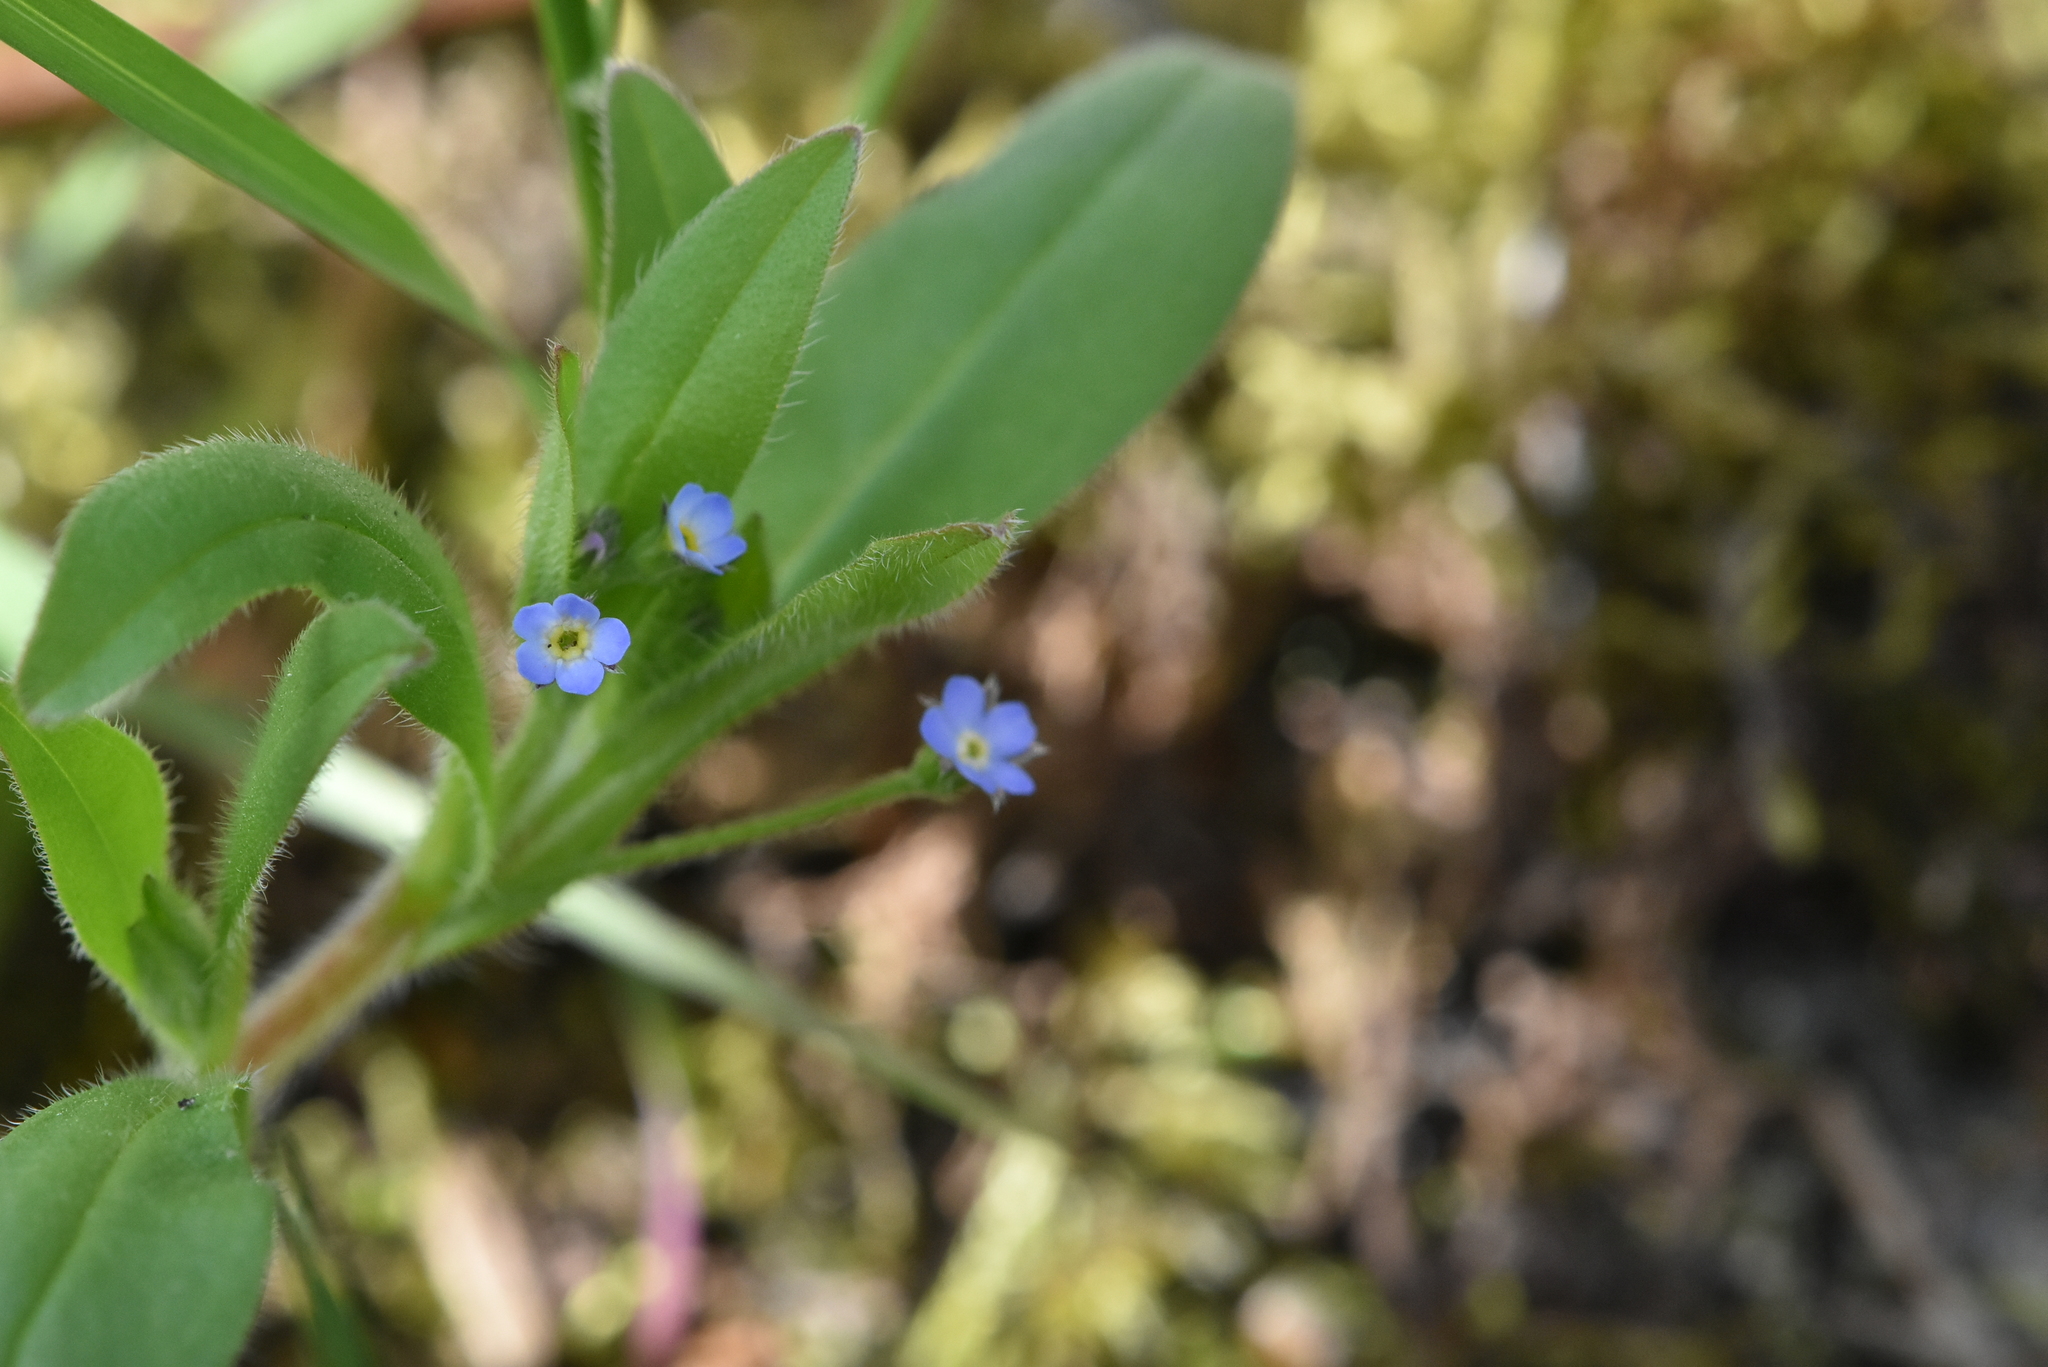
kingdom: Plantae
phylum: Tracheophyta
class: Magnoliopsida
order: Boraginales
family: Boraginaceae
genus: Myosotis
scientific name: Myosotis sparsiflora
